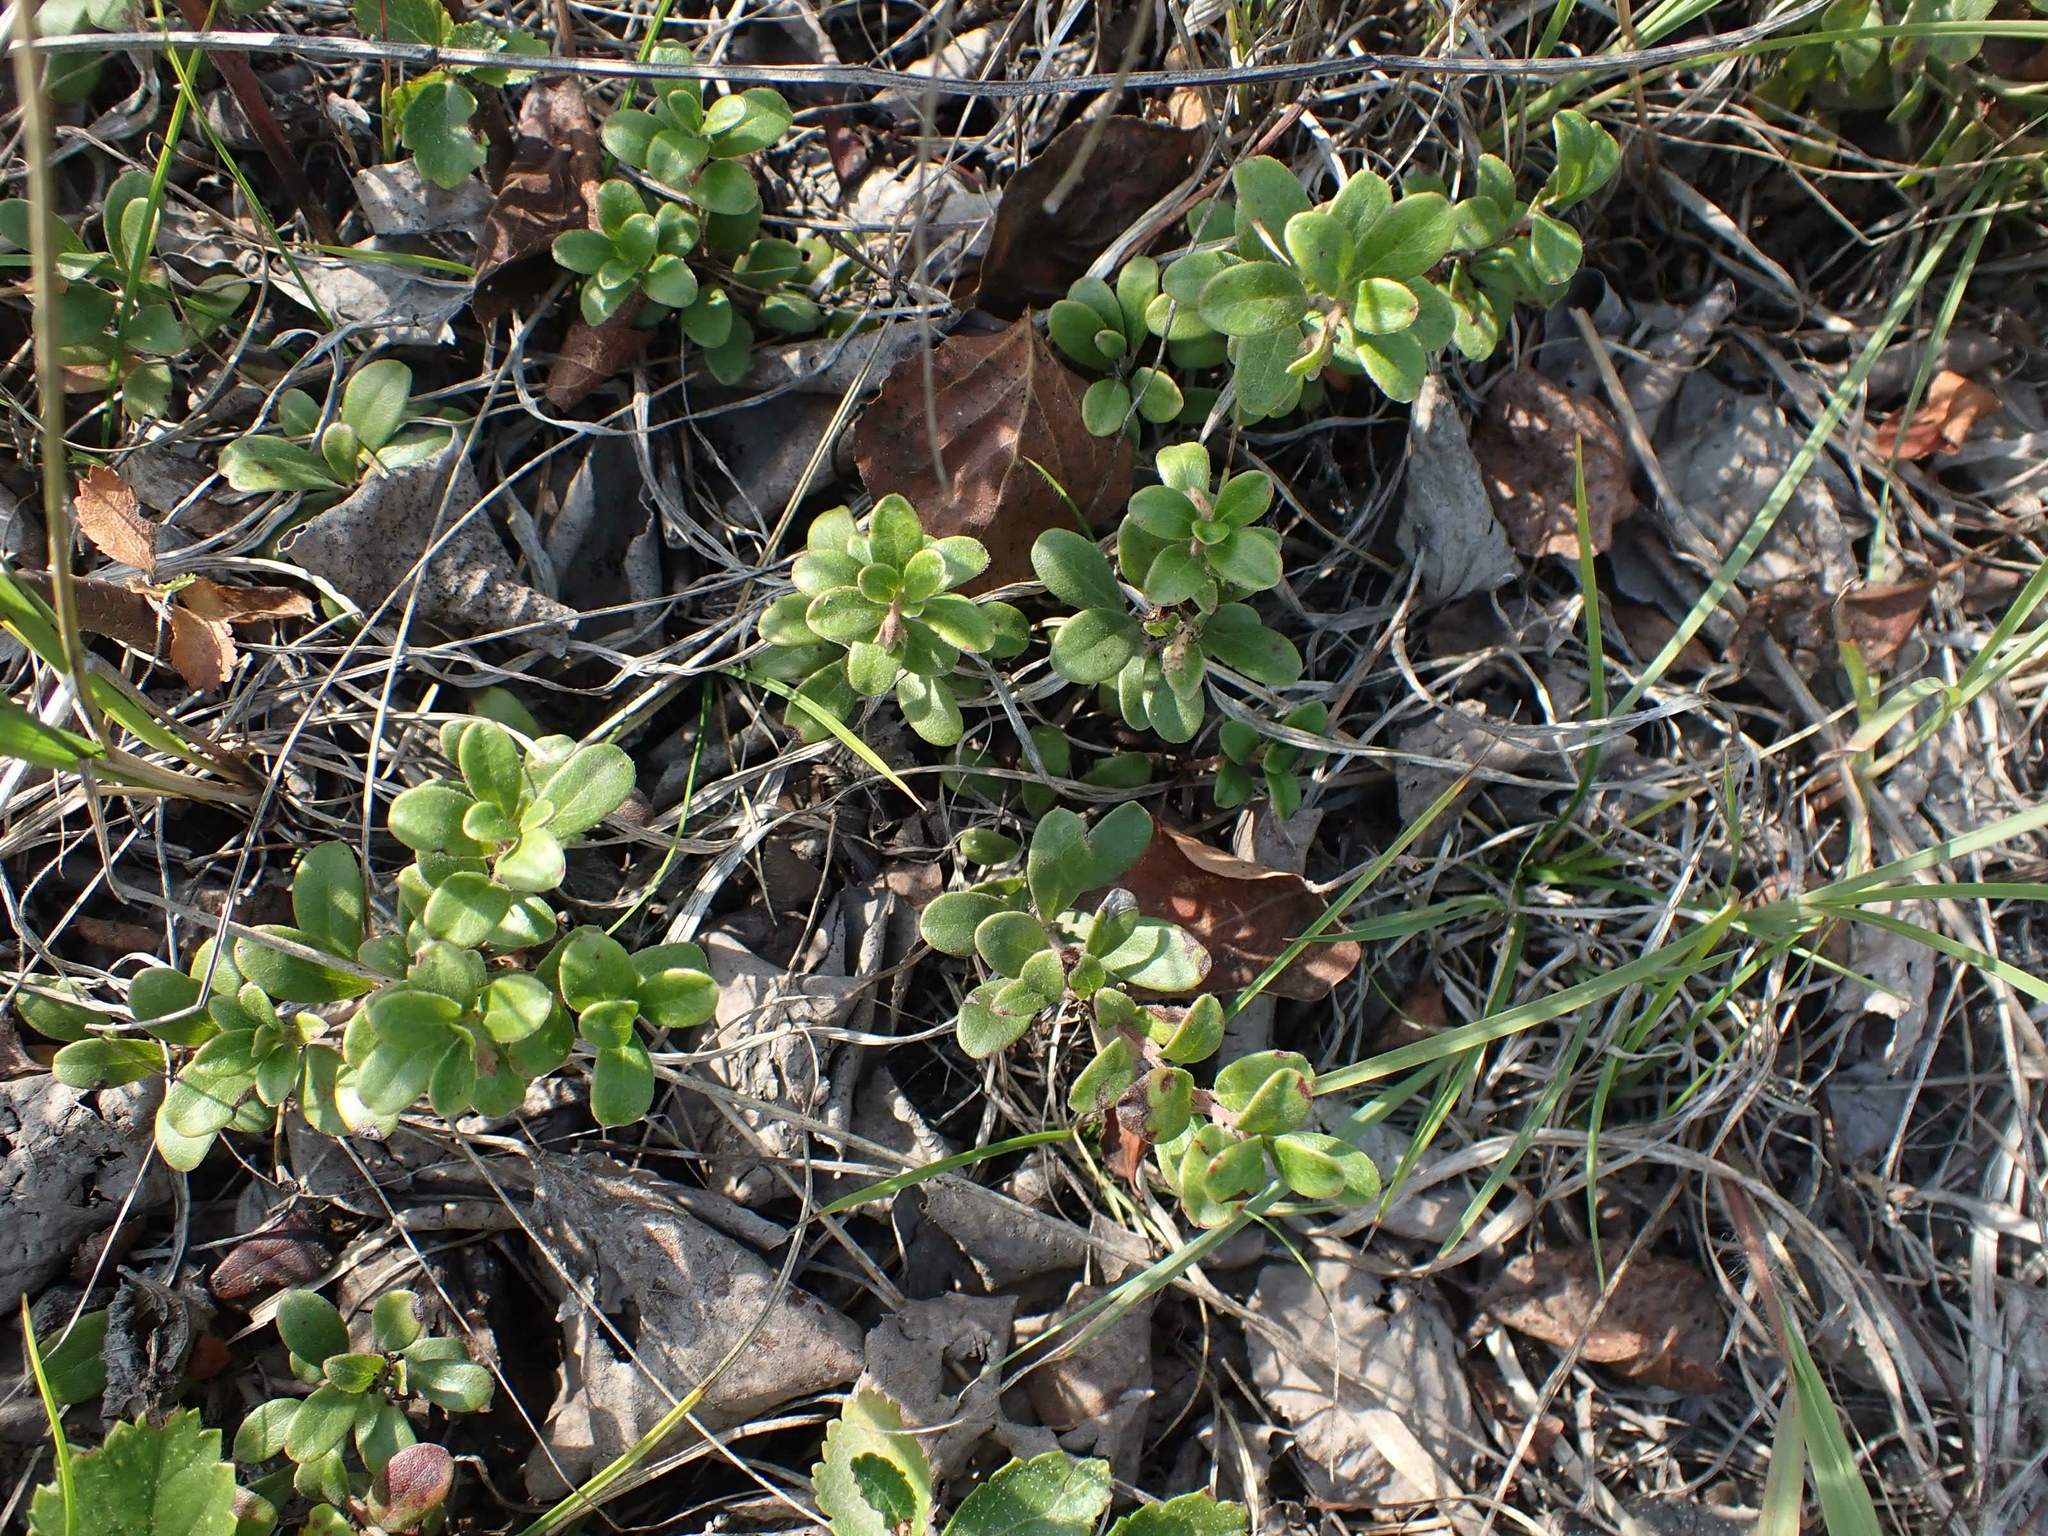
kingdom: Plantae
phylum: Tracheophyta
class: Magnoliopsida
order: Ericales
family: Ericaceae
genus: Arctostaphylos
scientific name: Arctostaphylos uva-ursi
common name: Bearberry
